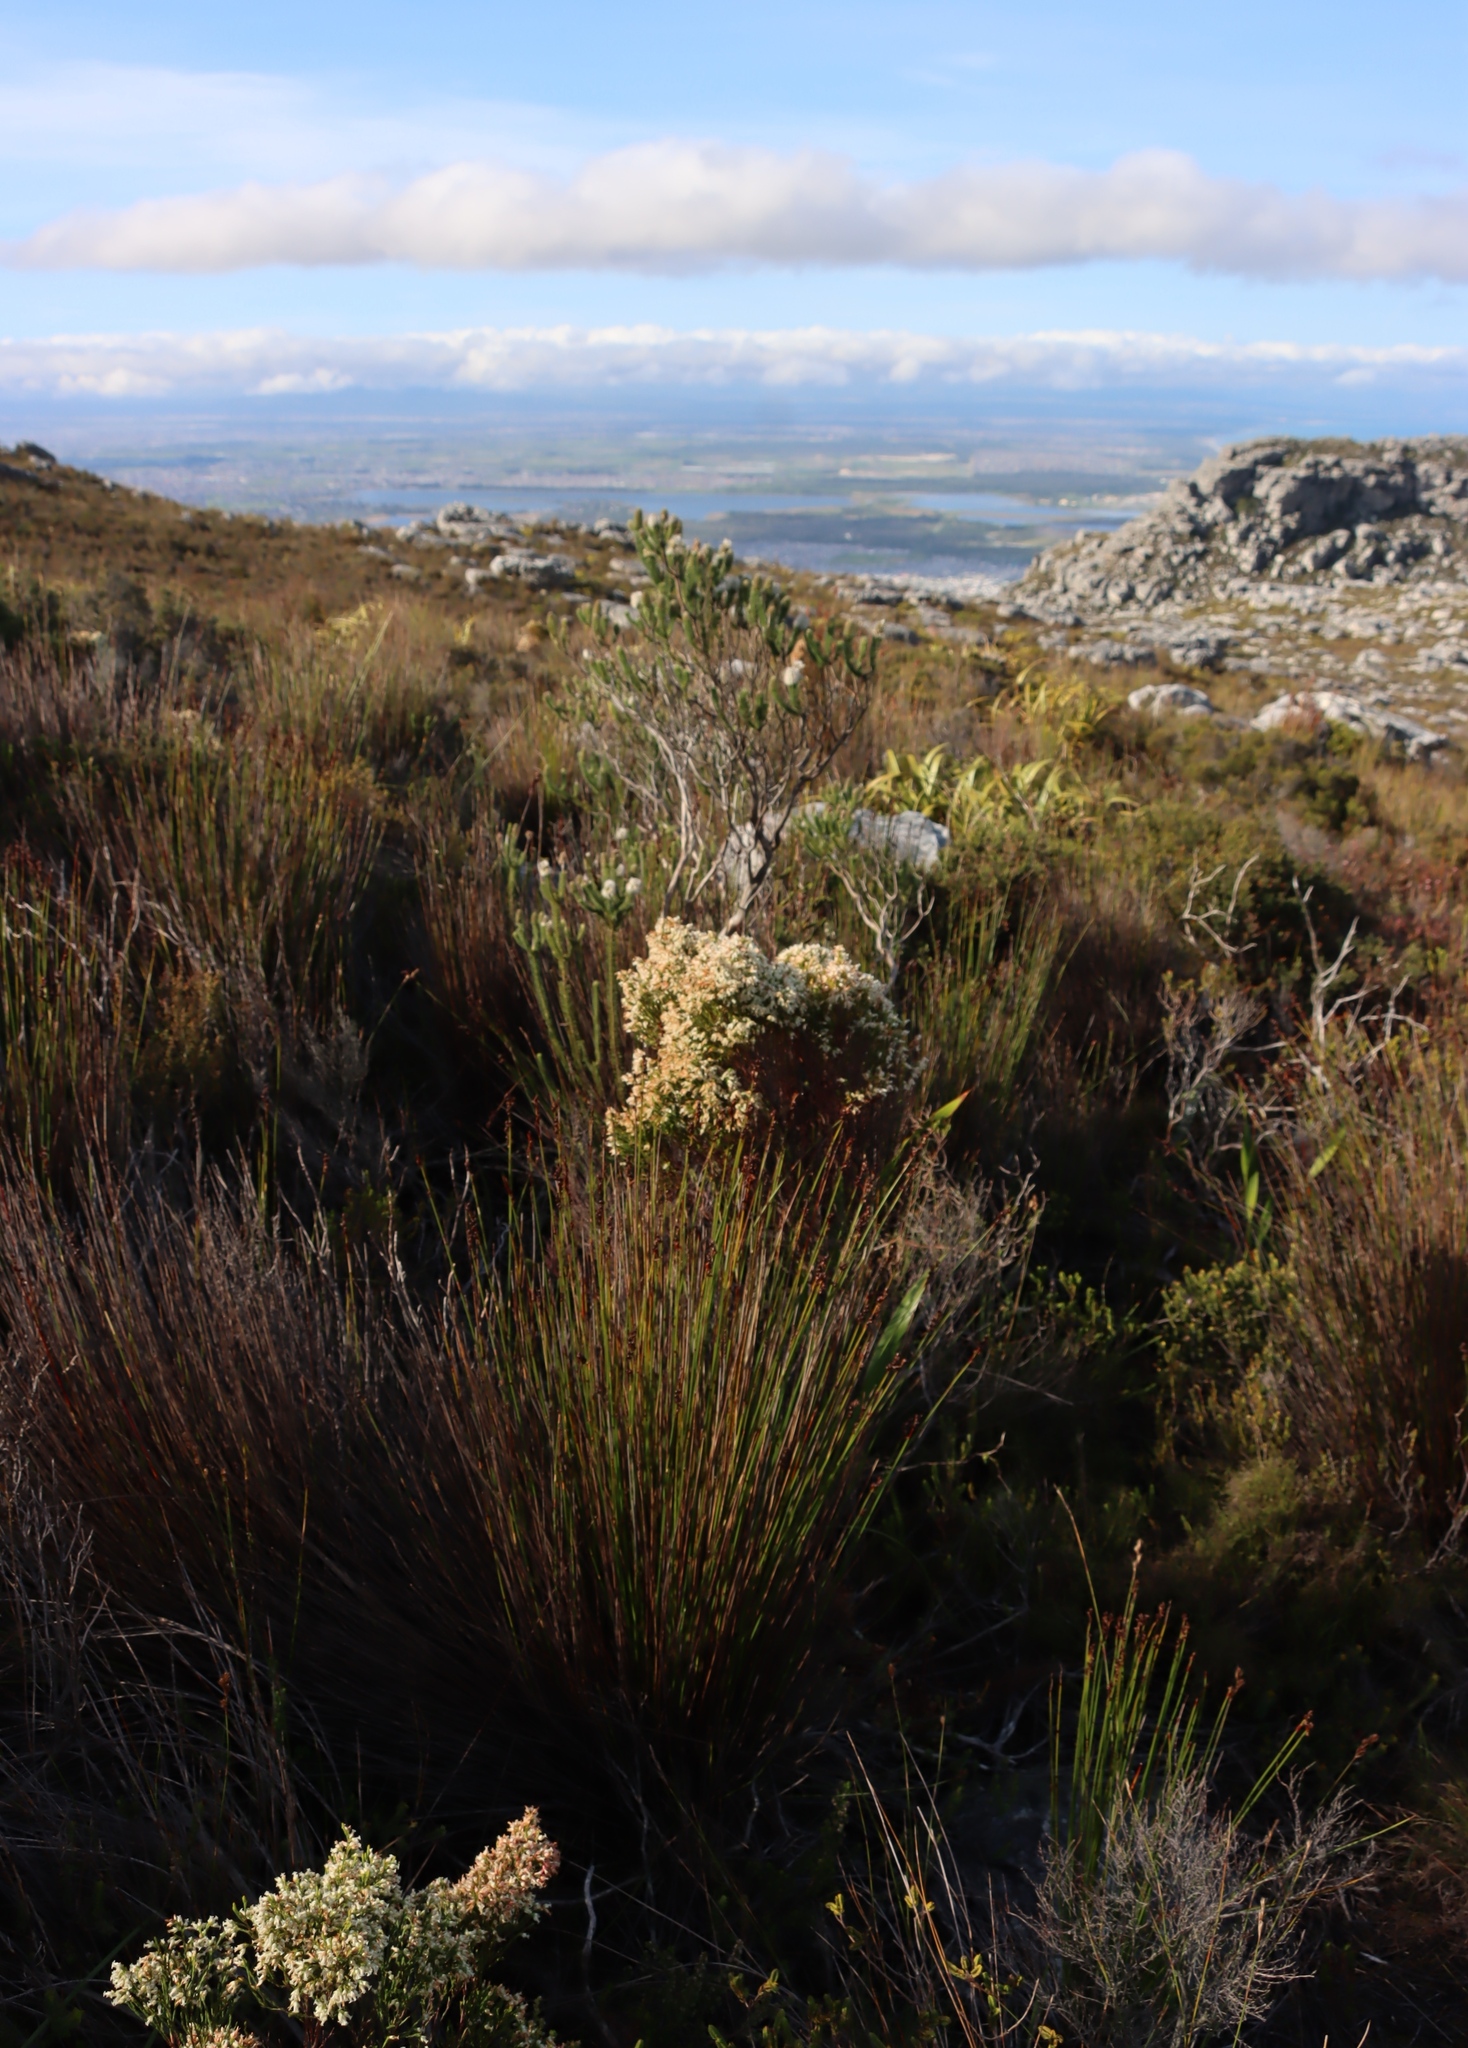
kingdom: Plantae
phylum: Tracheophyta
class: Magnoliopsida
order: Ericales
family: Ericaceae
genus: Erica
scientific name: Erica lutea
